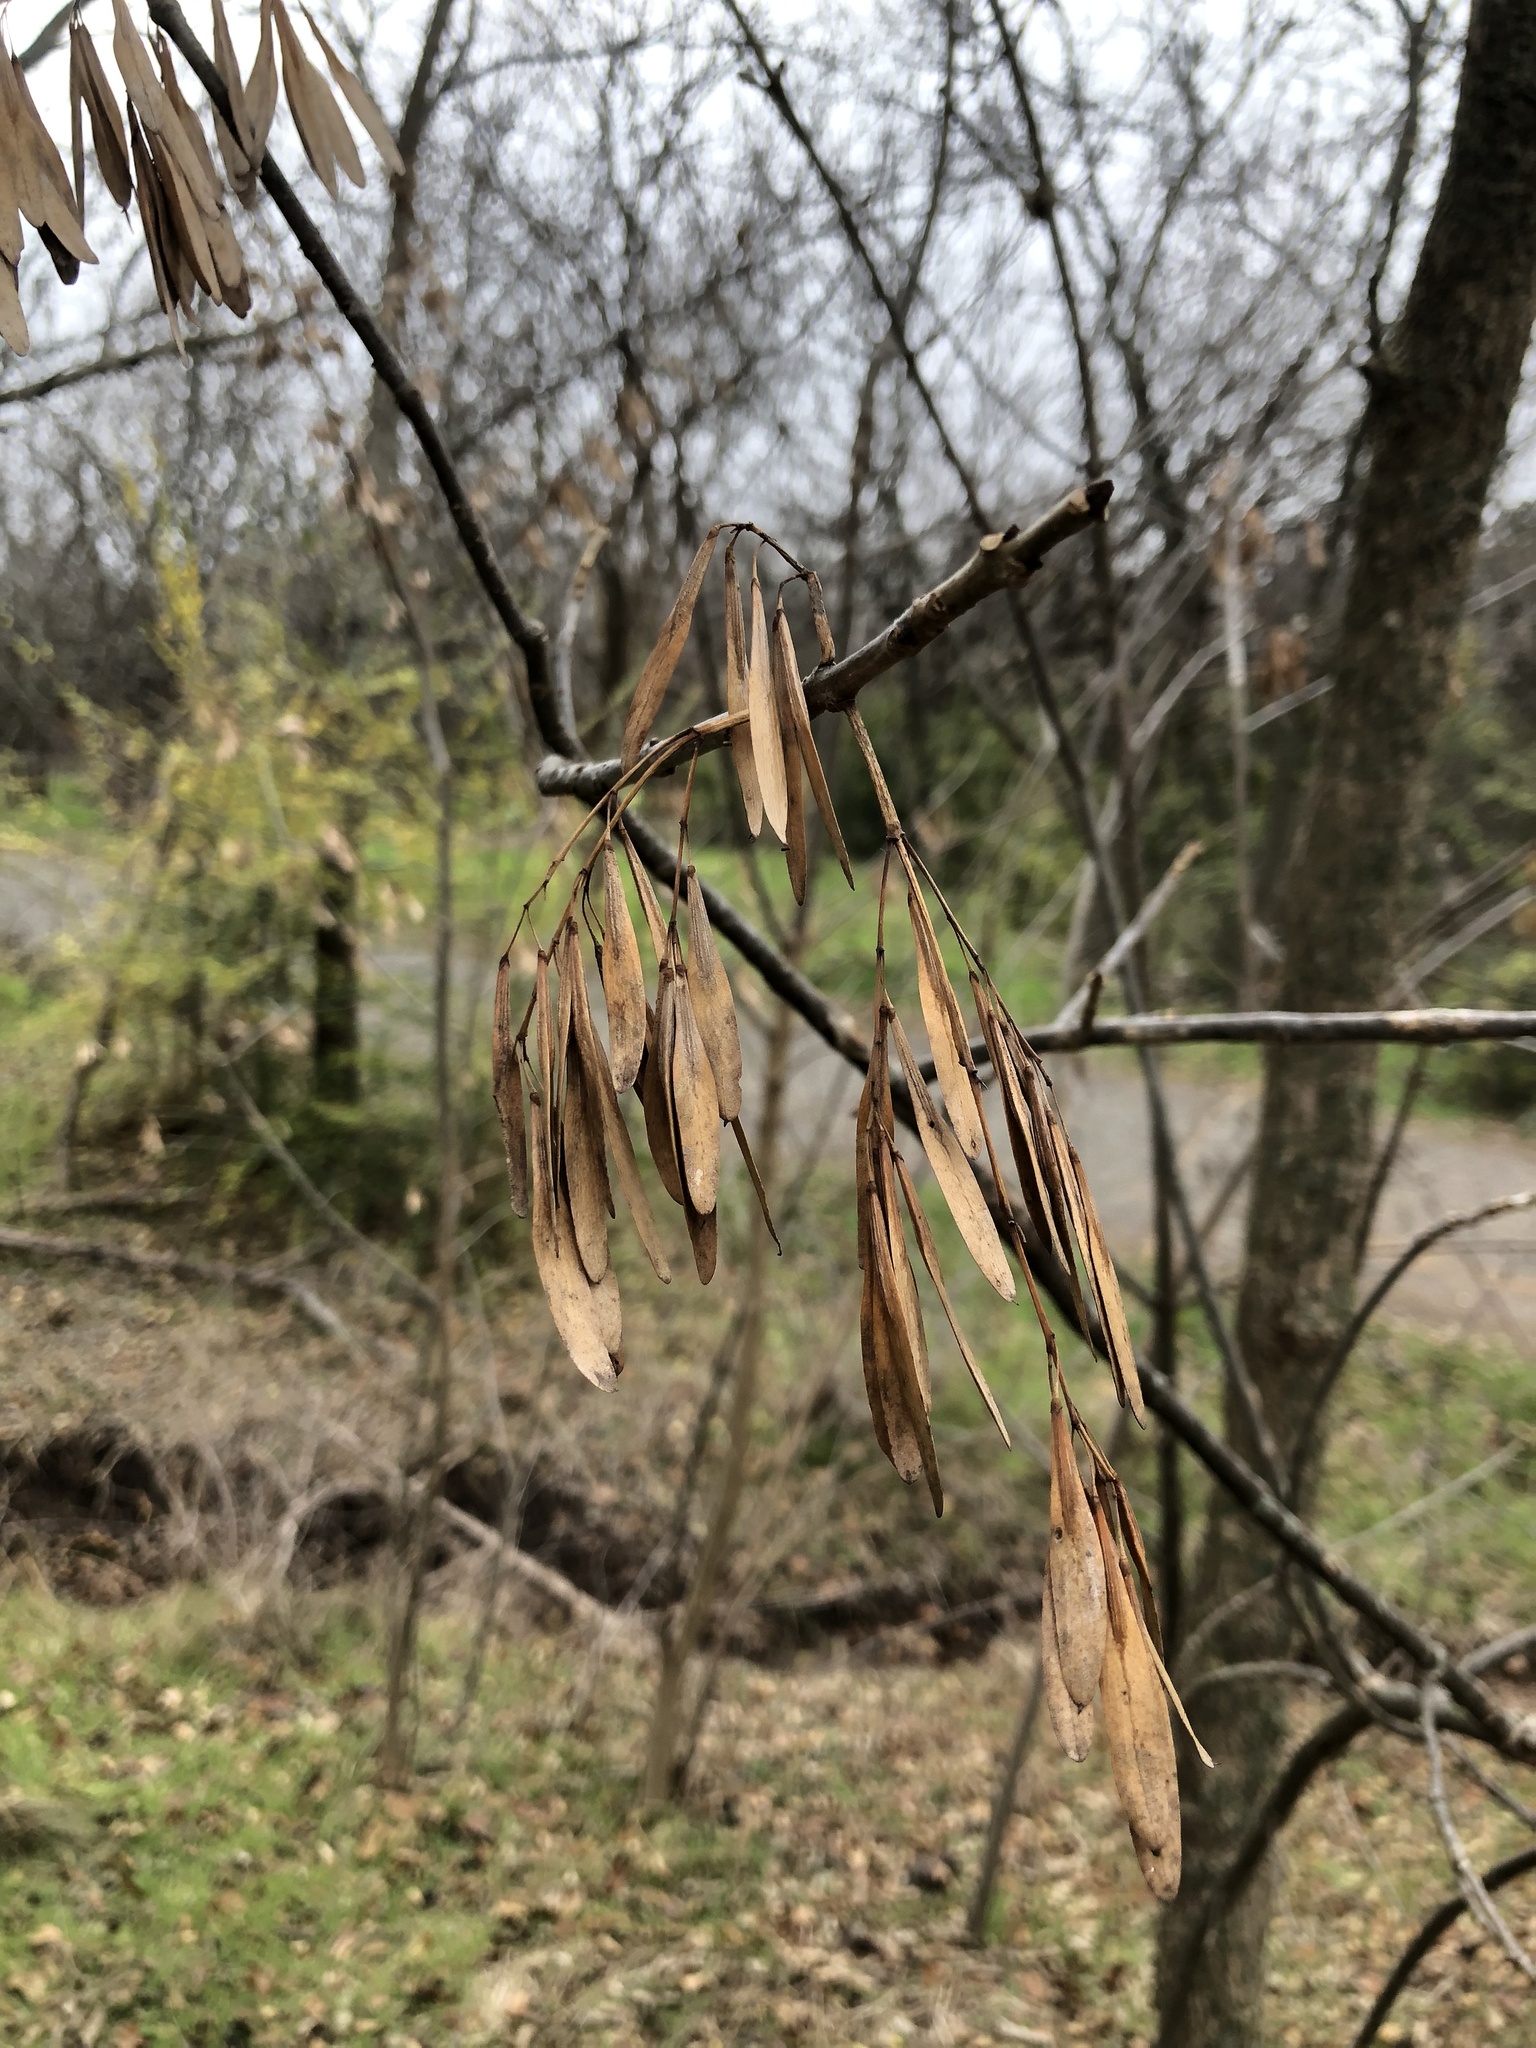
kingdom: Plantae
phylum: Tracheophyta
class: Magnoliopsida
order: Lamiales
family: Oleaceae
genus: Fraxinus
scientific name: Fraxinus pennsylvanica
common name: Green ash
